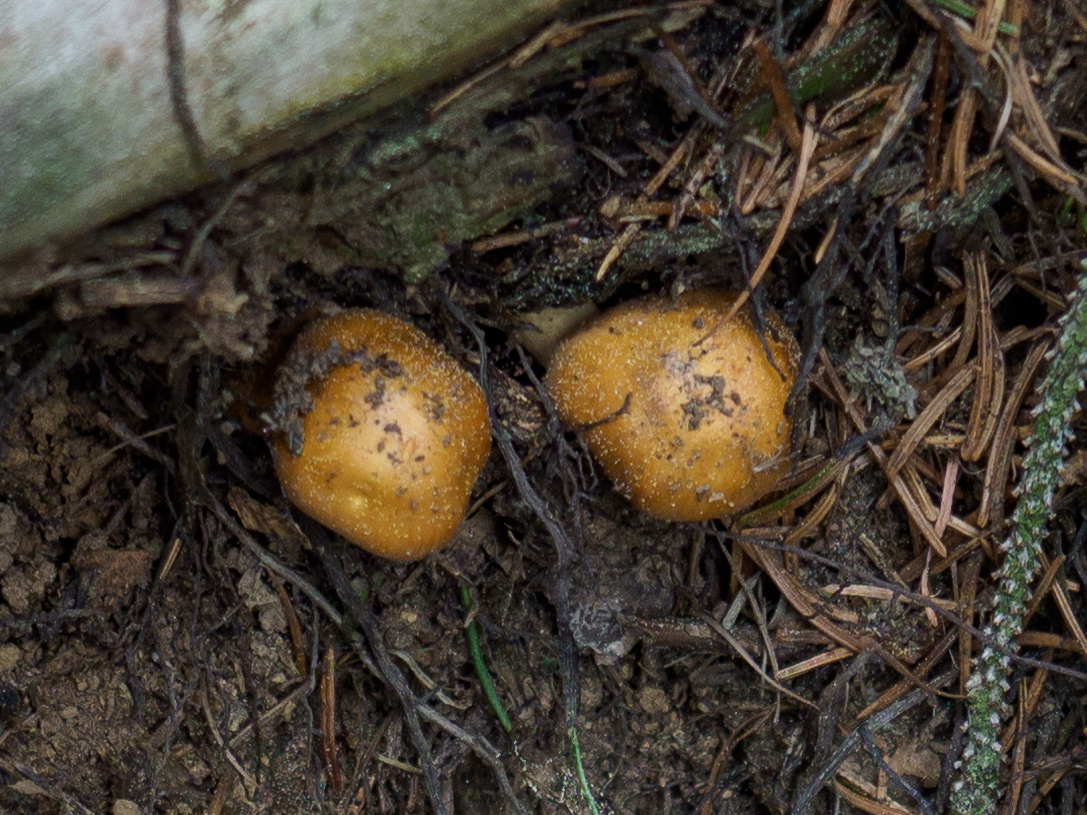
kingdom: Fungi
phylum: Basidiomycota
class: Agaricomycetes
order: Agaricales
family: Strophariaceae
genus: Hypholoma
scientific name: Hypholoma capnoides
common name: Conifer tuft
